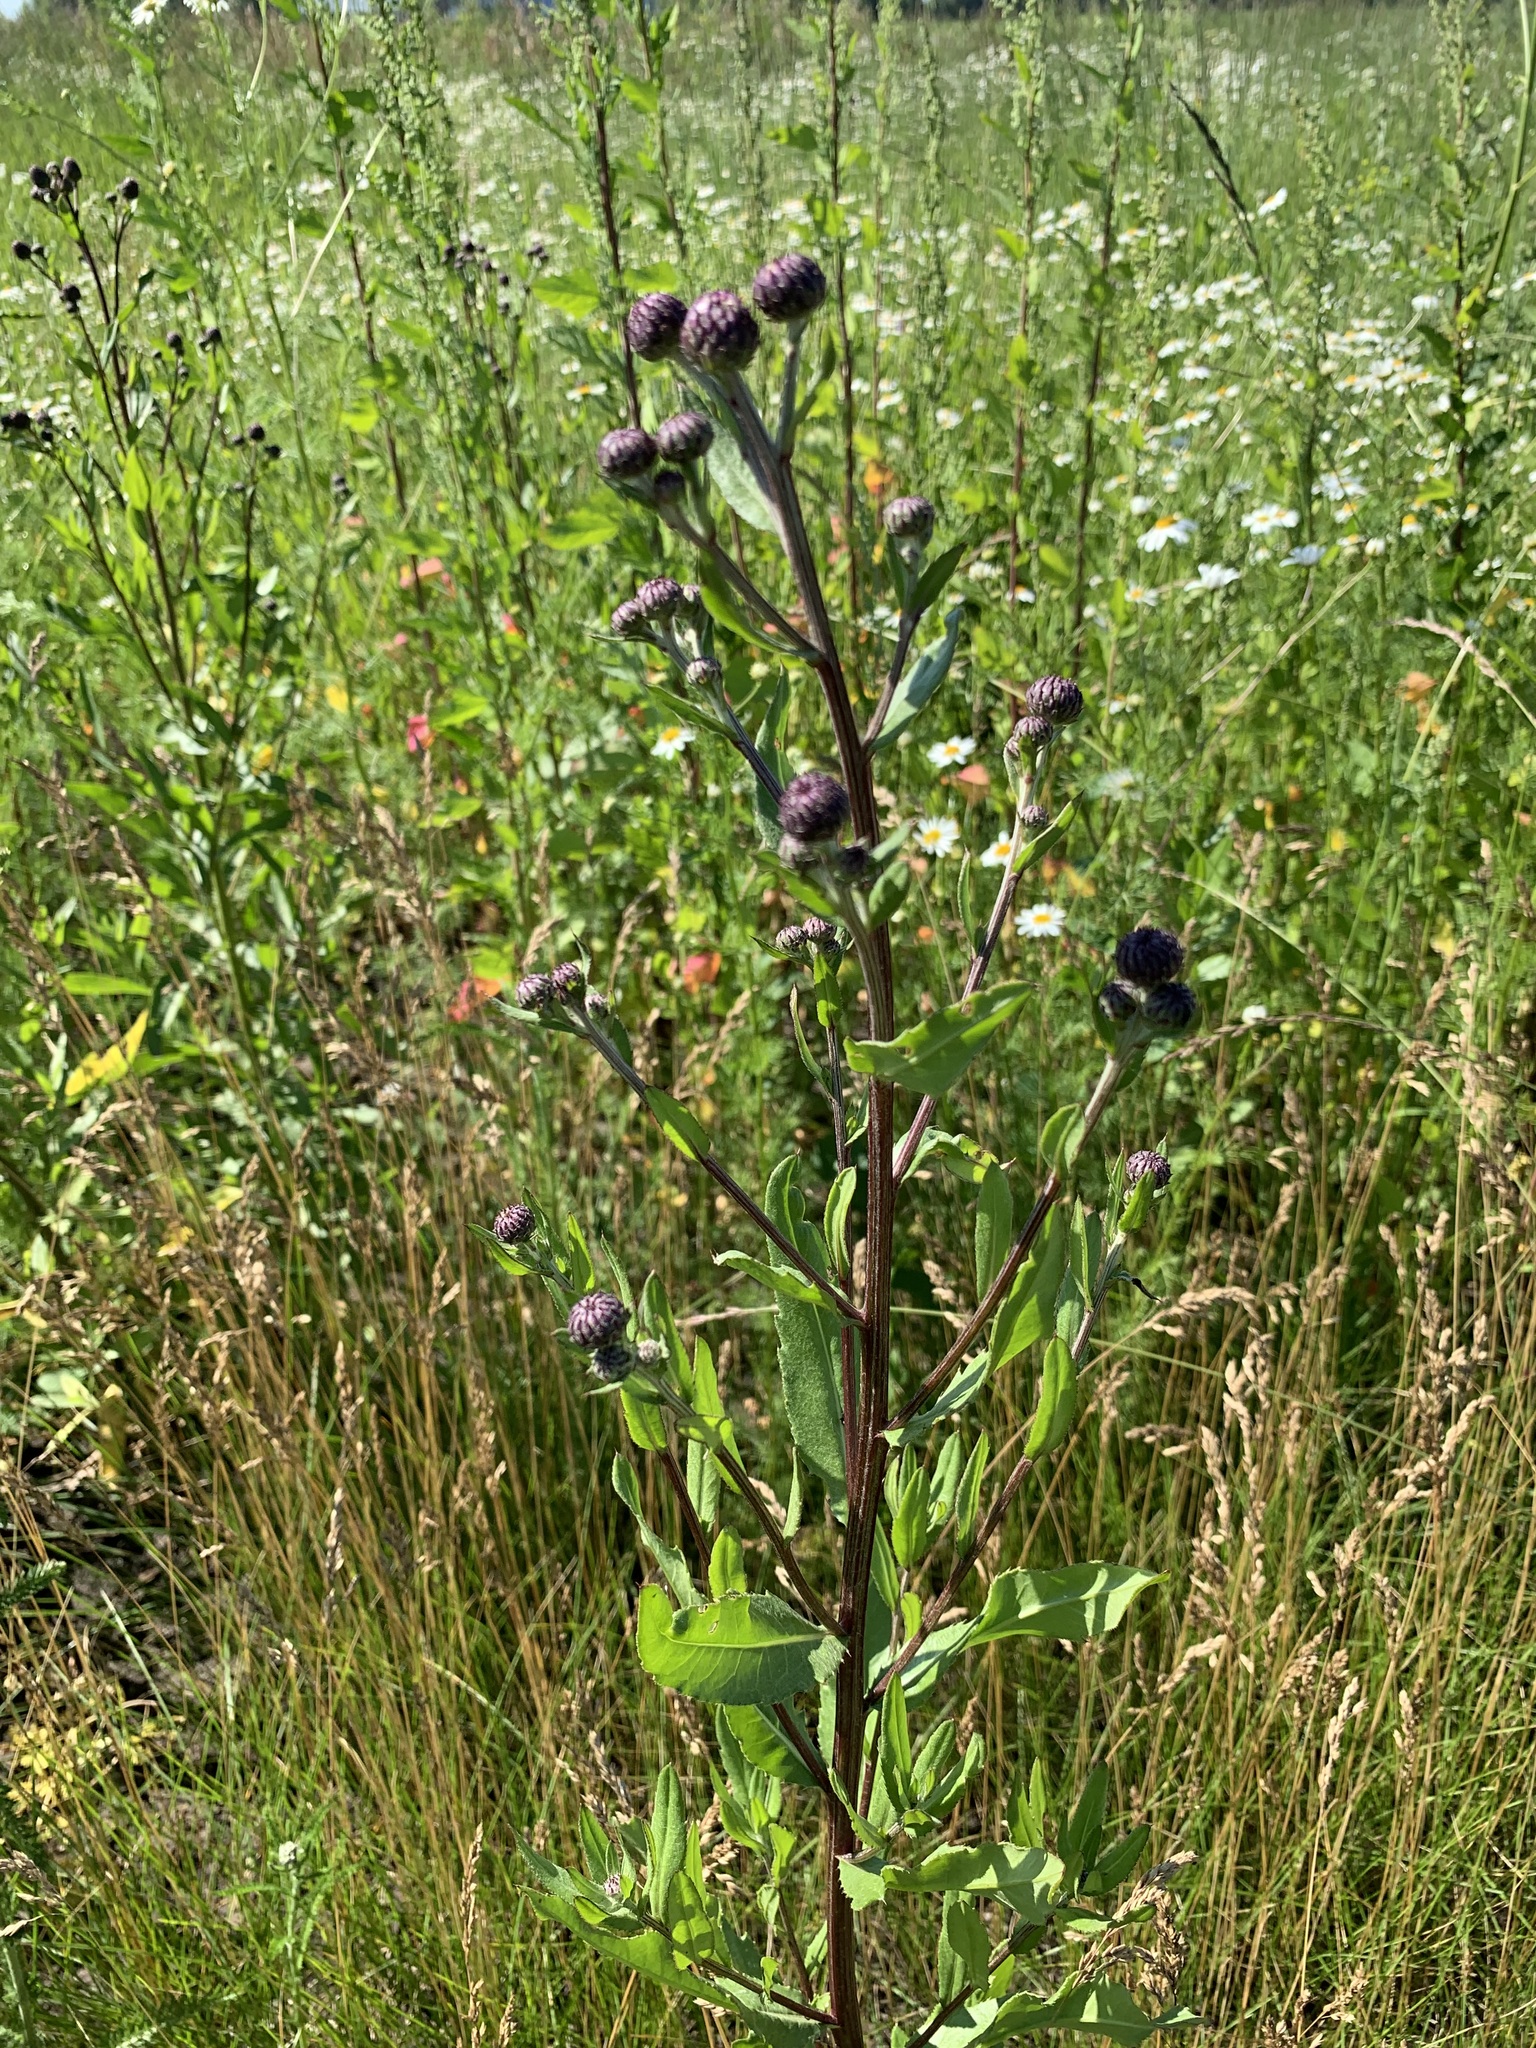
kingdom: Plantae
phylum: Tracheophyta
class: Magnoliopsida
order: Asterales
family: Asteraceae
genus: Cirsium
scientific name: Cirsium arvense
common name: Creeping thistle
